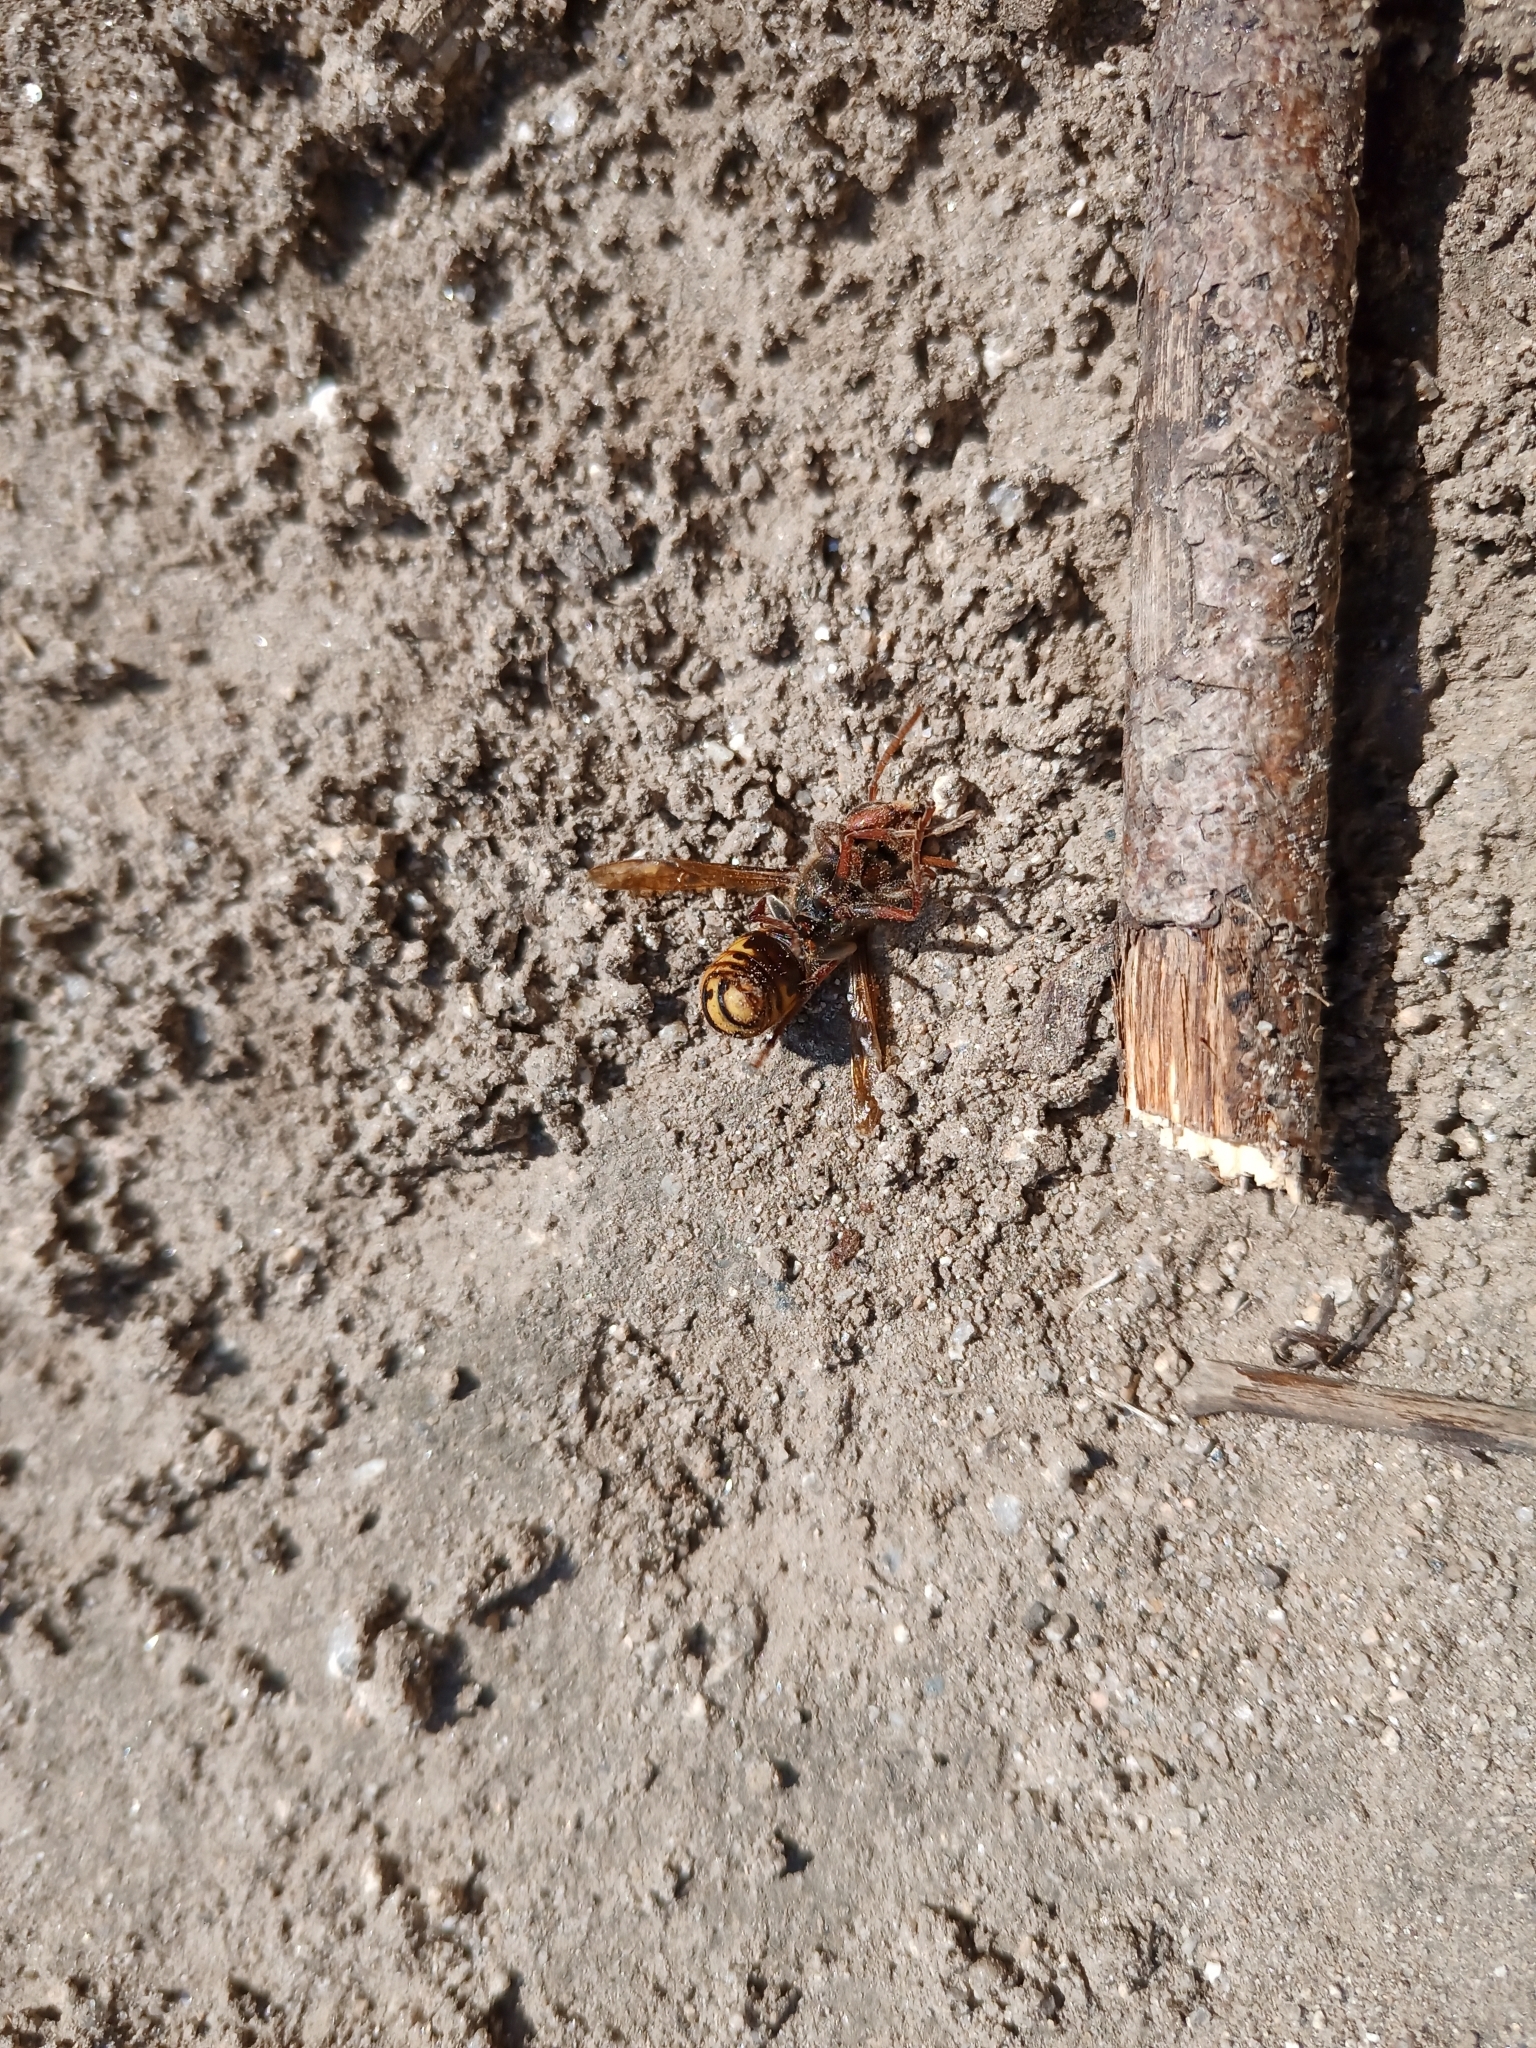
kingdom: Animalia
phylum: Arthropoda
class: Insecta
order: Hymenoptera
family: Vespidae
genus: Vespa
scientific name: Vespa crabro
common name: Hornet
